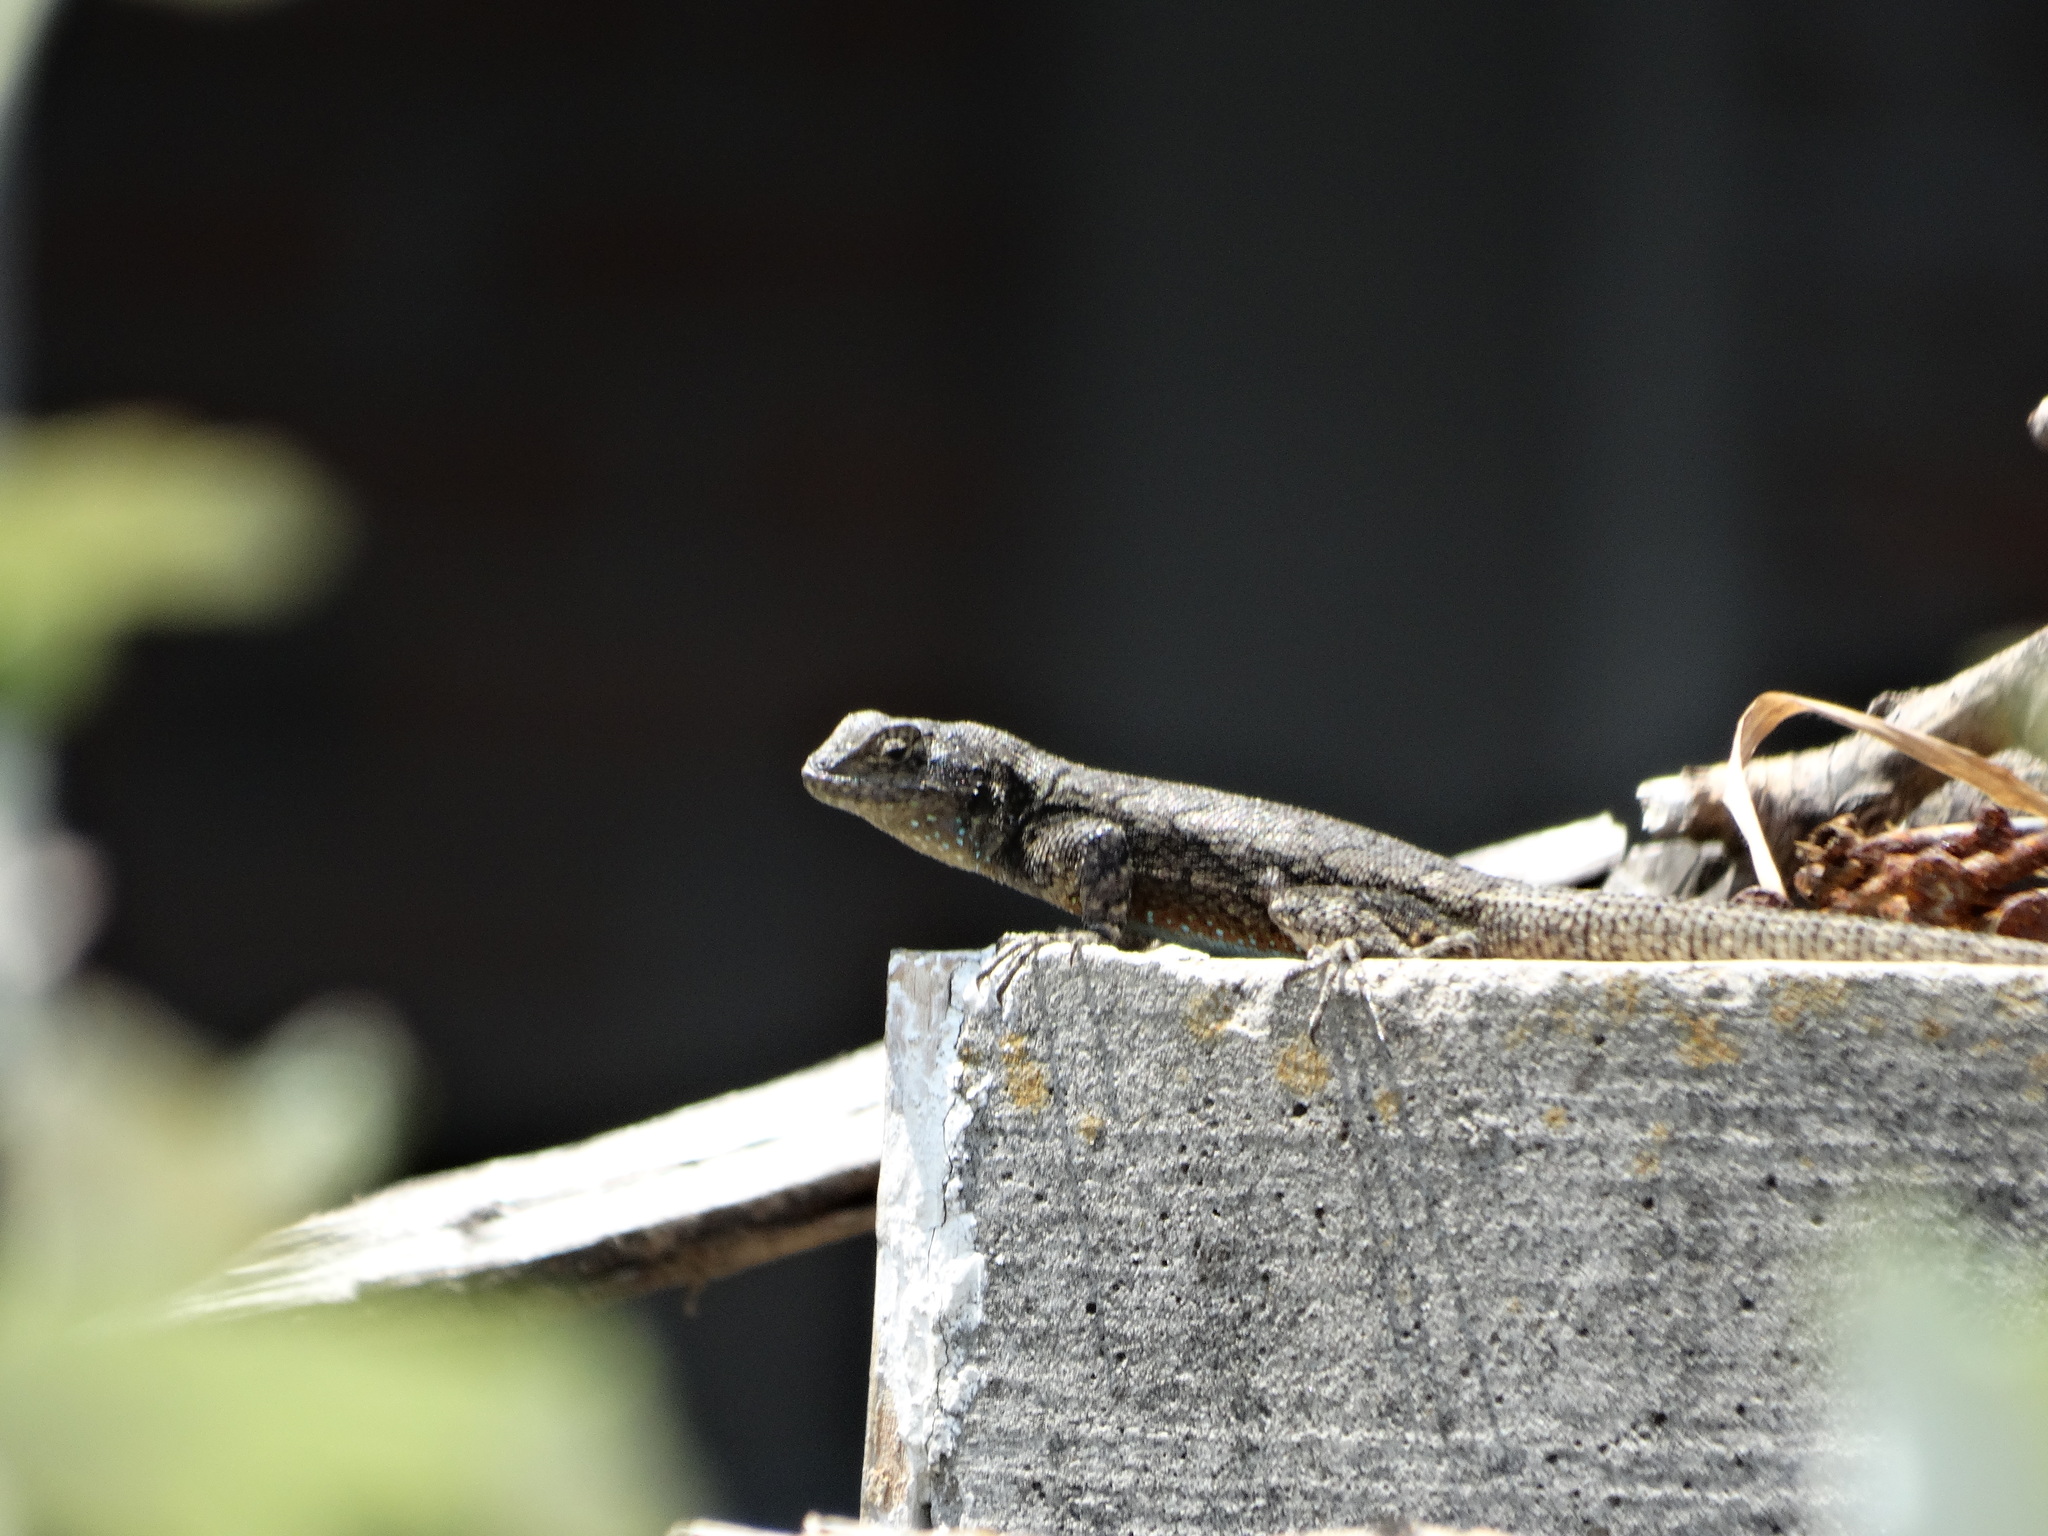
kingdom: Animalia
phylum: Chordata
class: Squamata
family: Phrynosomatidae
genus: Sceloporus
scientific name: Sceloporus grammicus
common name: Mesquite lizard
